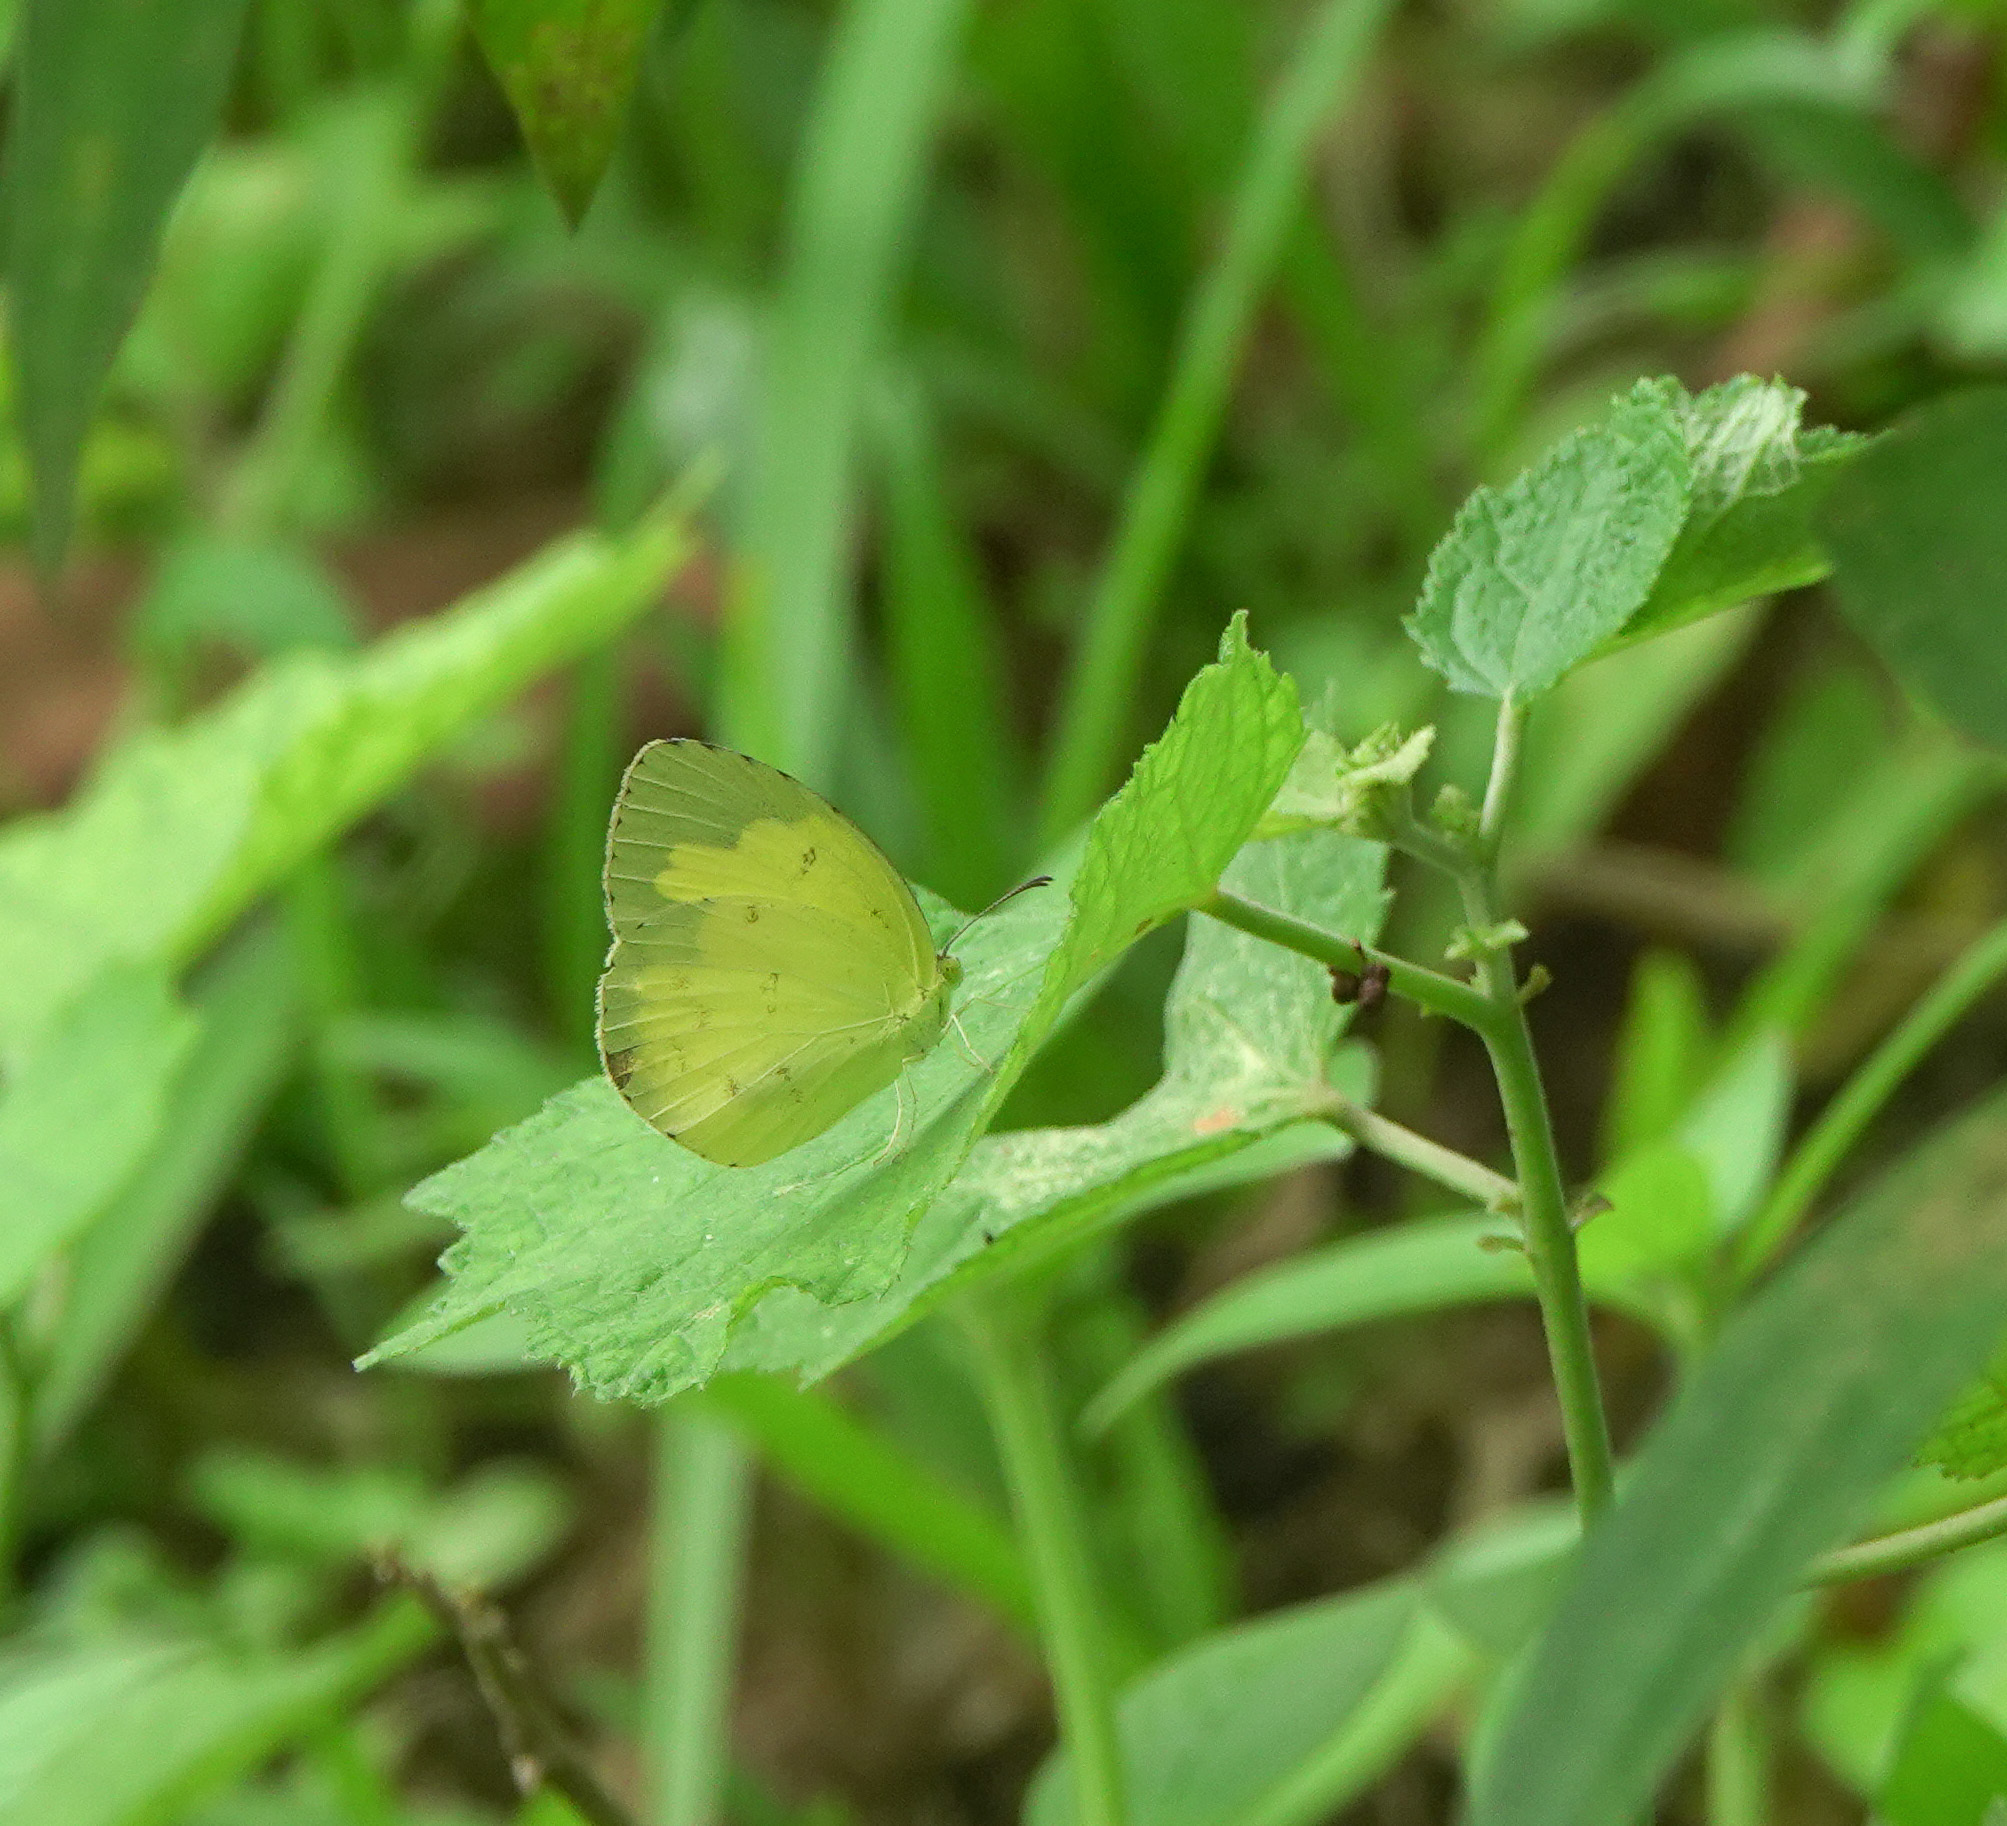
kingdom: Animalia
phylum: Arthropoda
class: Insecta
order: Lepidoptera
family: Pieridae
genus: Eurema
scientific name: Eurema hecabe
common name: Pale grass yellow
